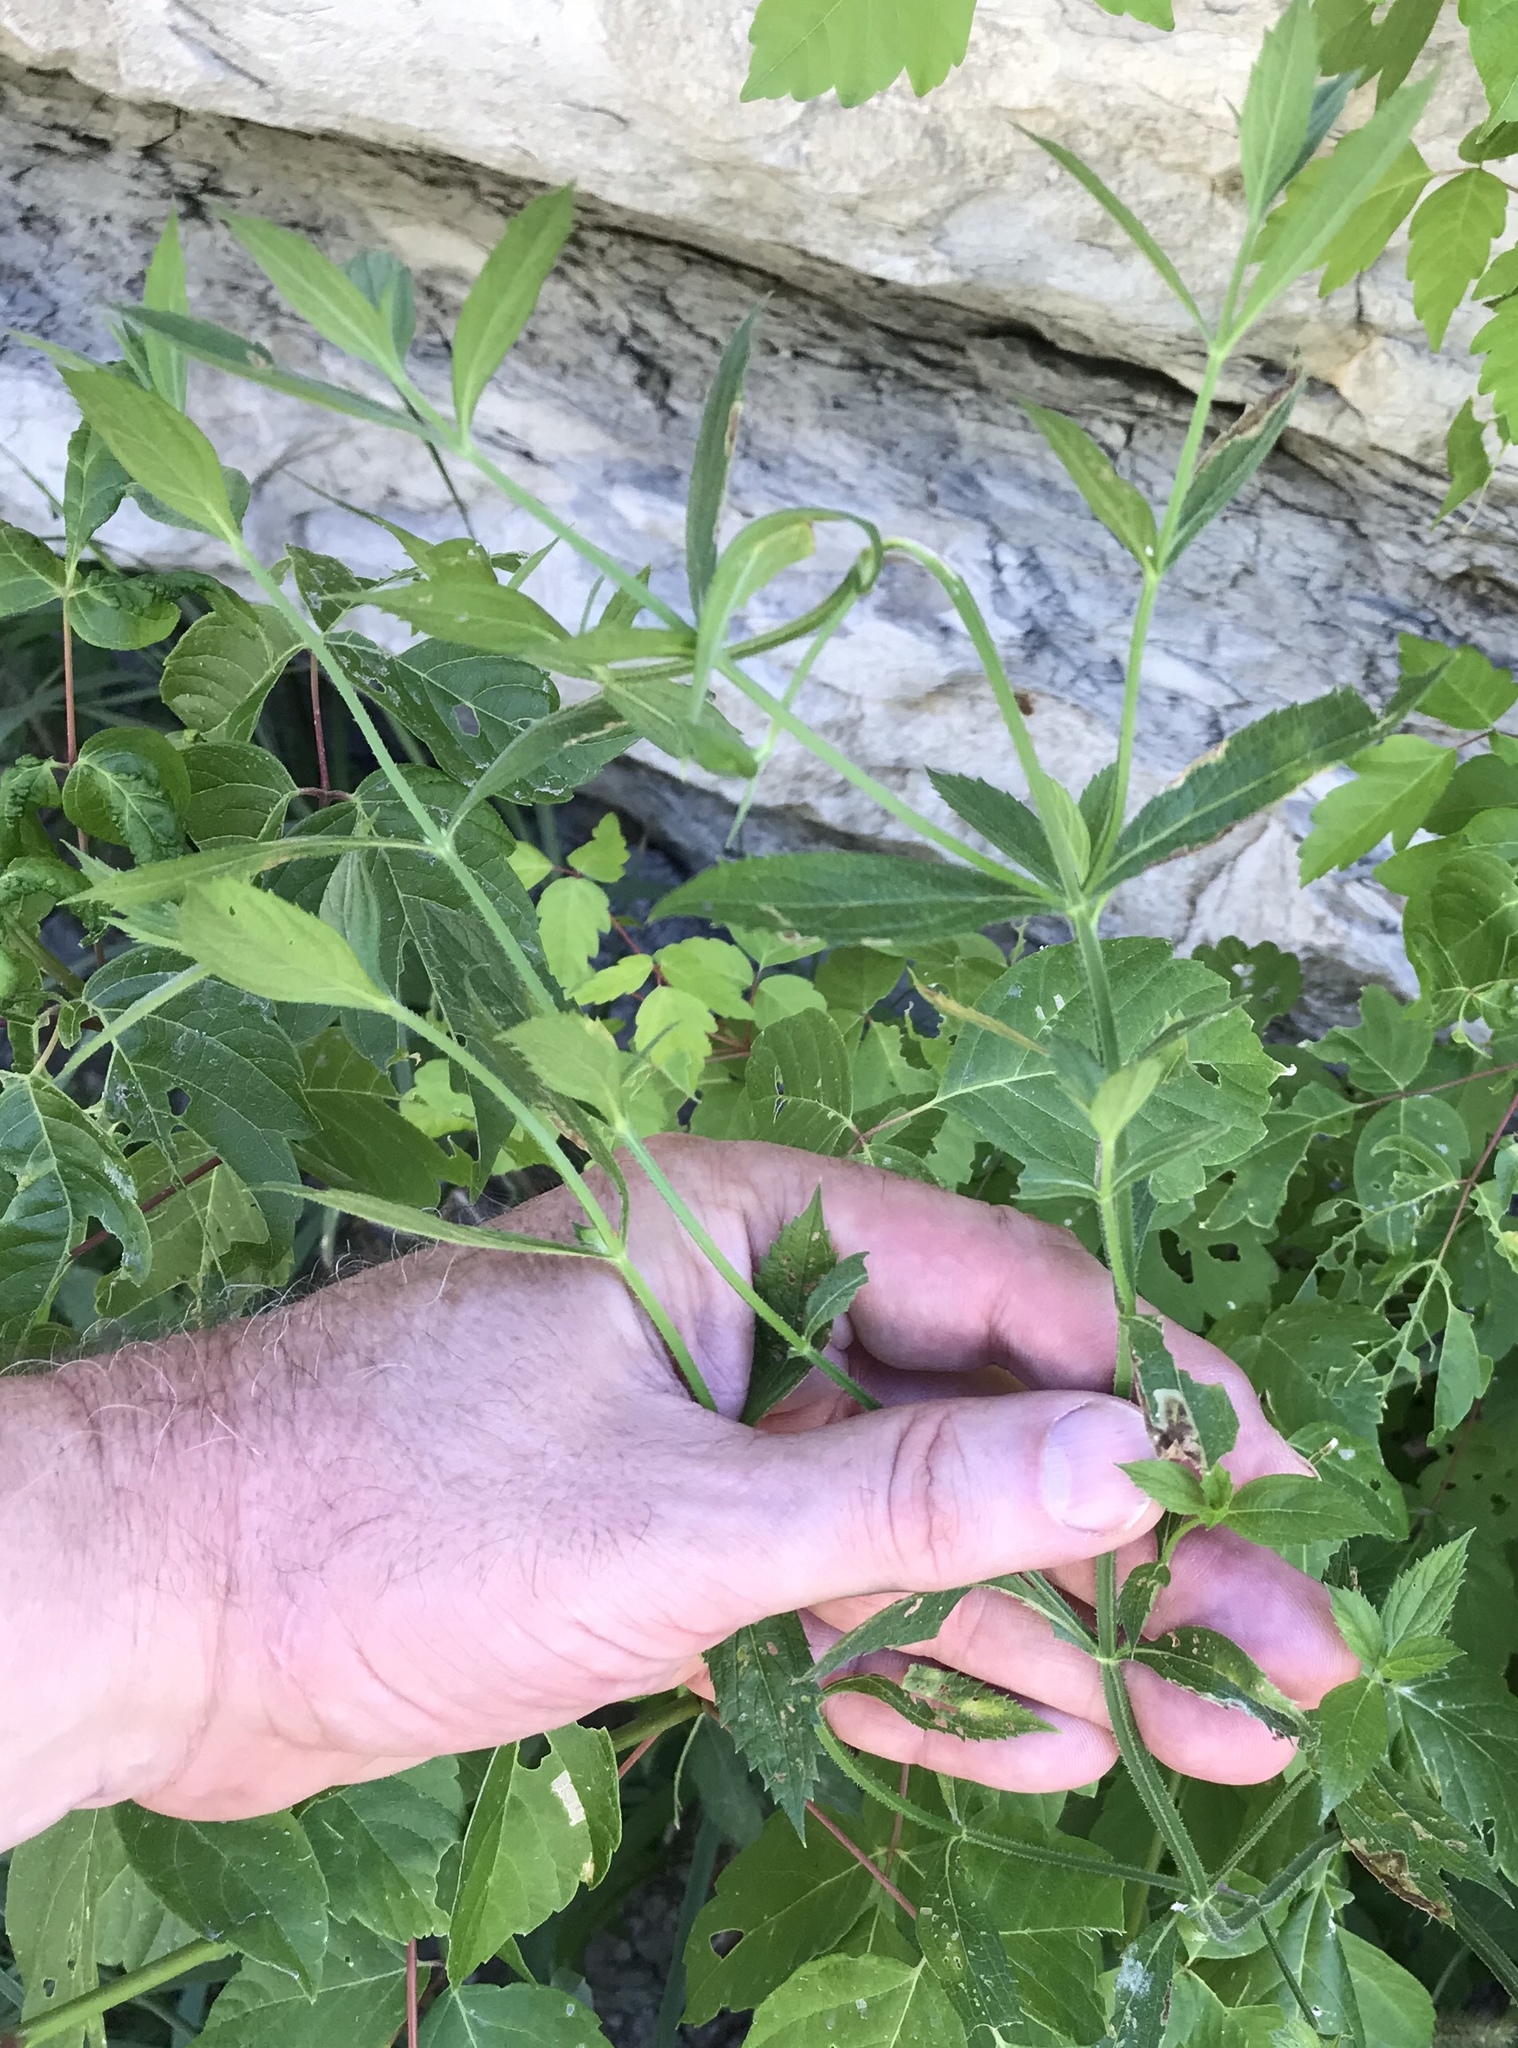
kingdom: Plantae
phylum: Tracheophyta
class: Magnoliopsida
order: Lamiales
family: Verbenaceae
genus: Verbena
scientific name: Verbena brasiliensis
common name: Brazilian vervain
